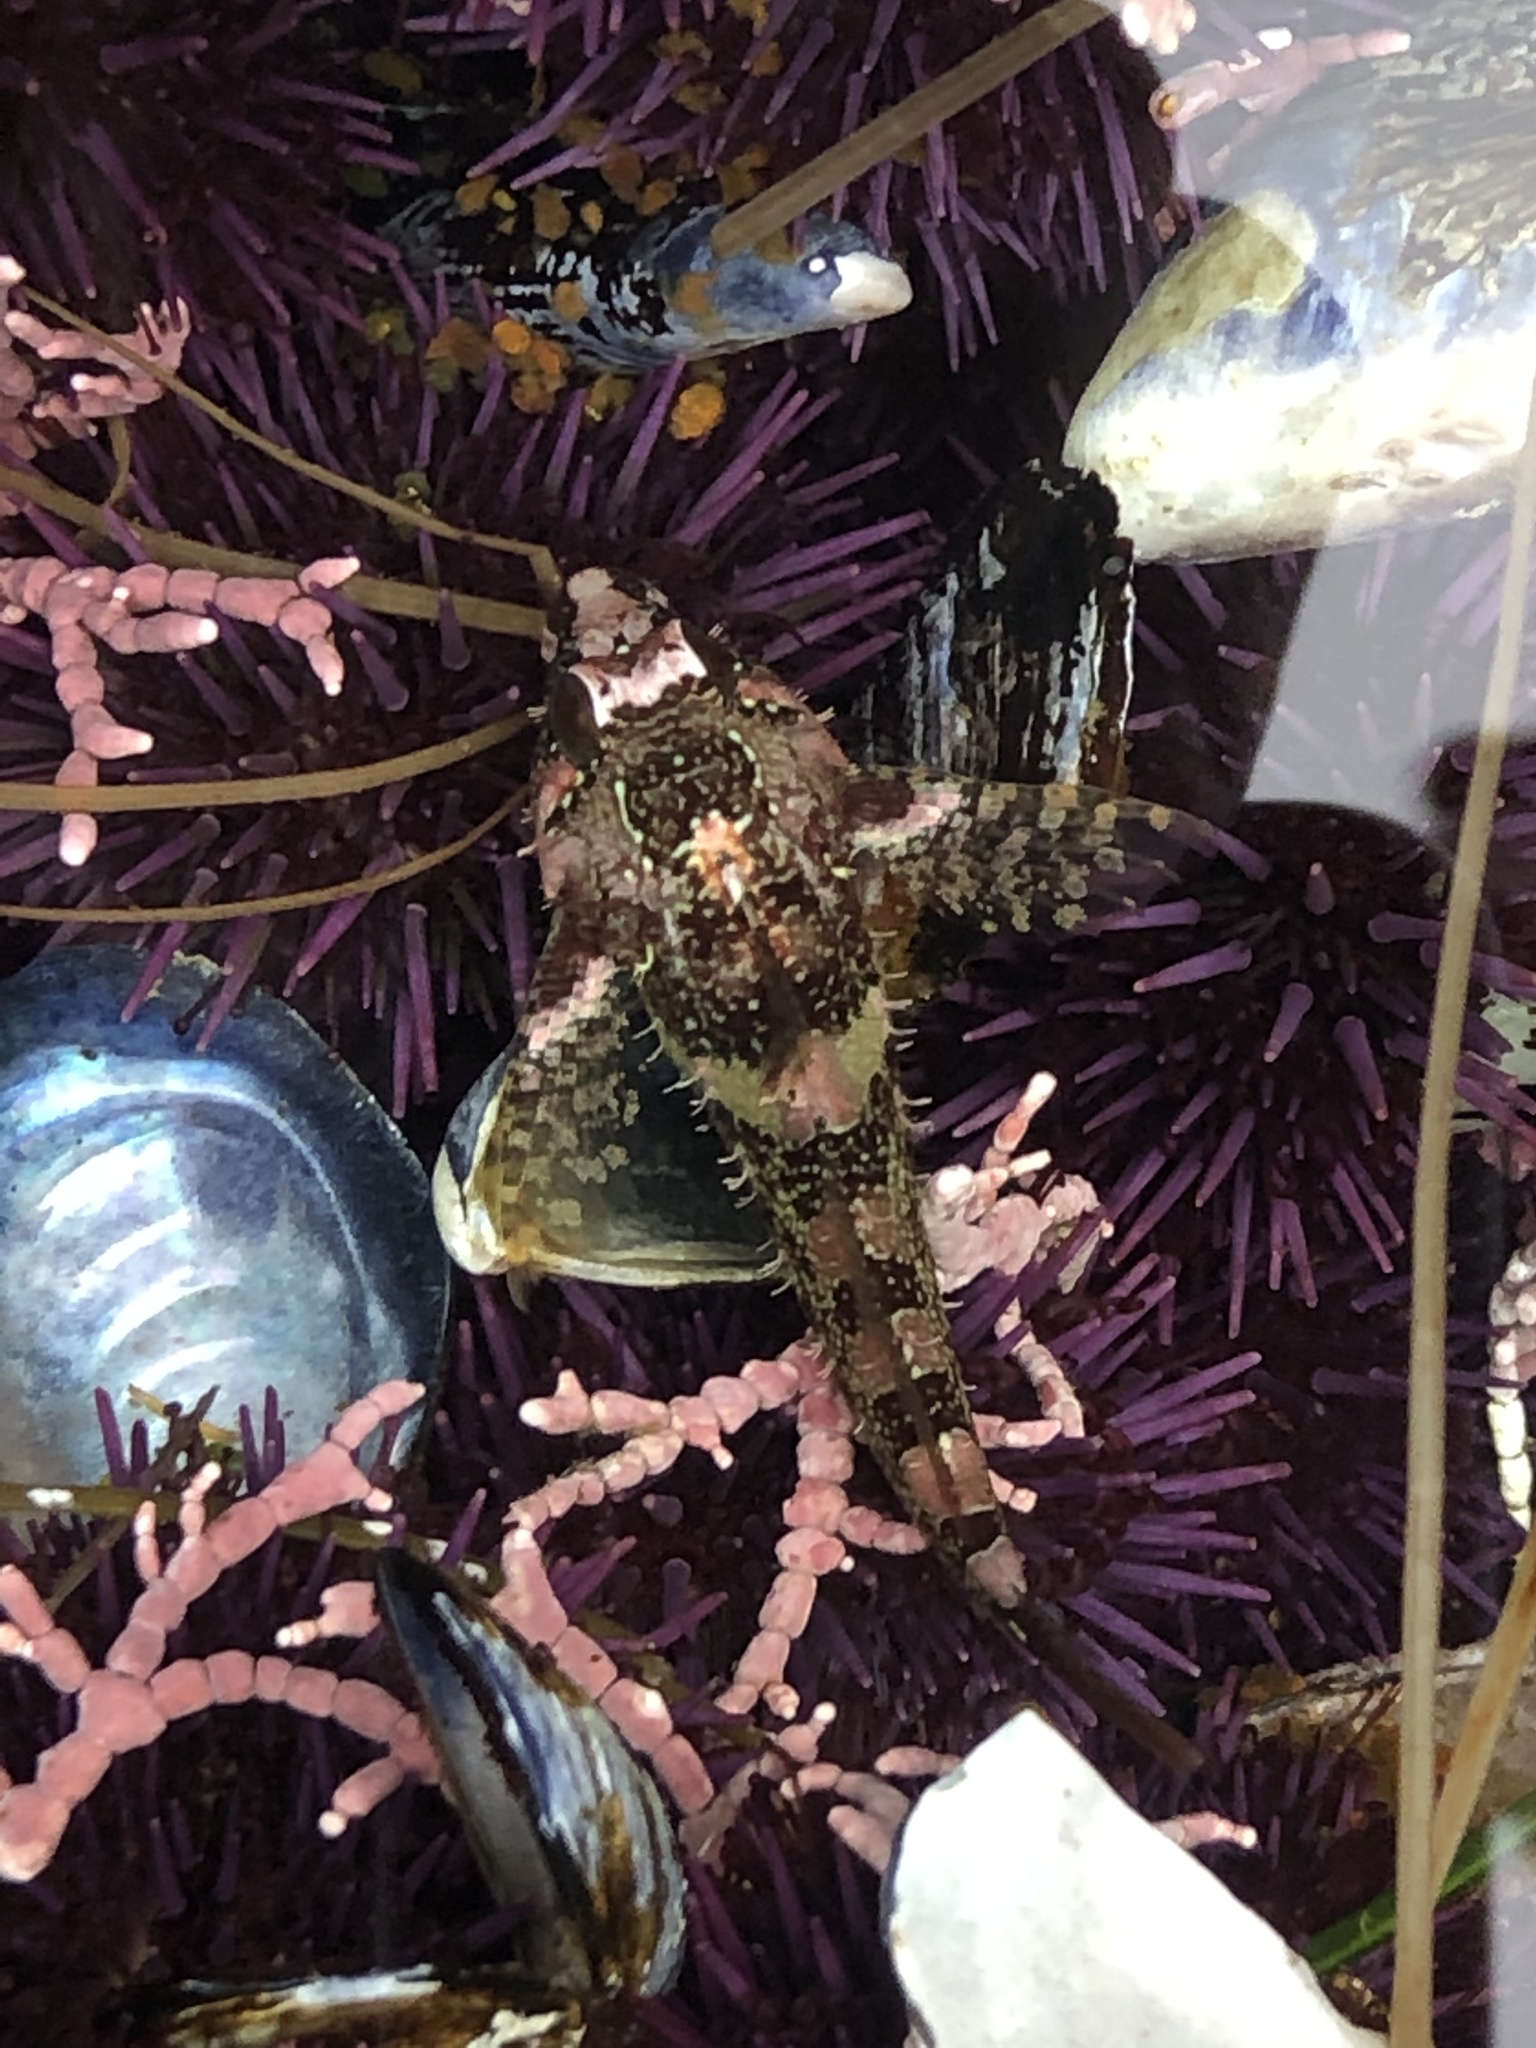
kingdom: Animalia
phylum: Chordata
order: Scorpaeniformes
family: Cottidae
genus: Oligocottus
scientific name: Oligocottus rubellio
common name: Rosy sculpin
